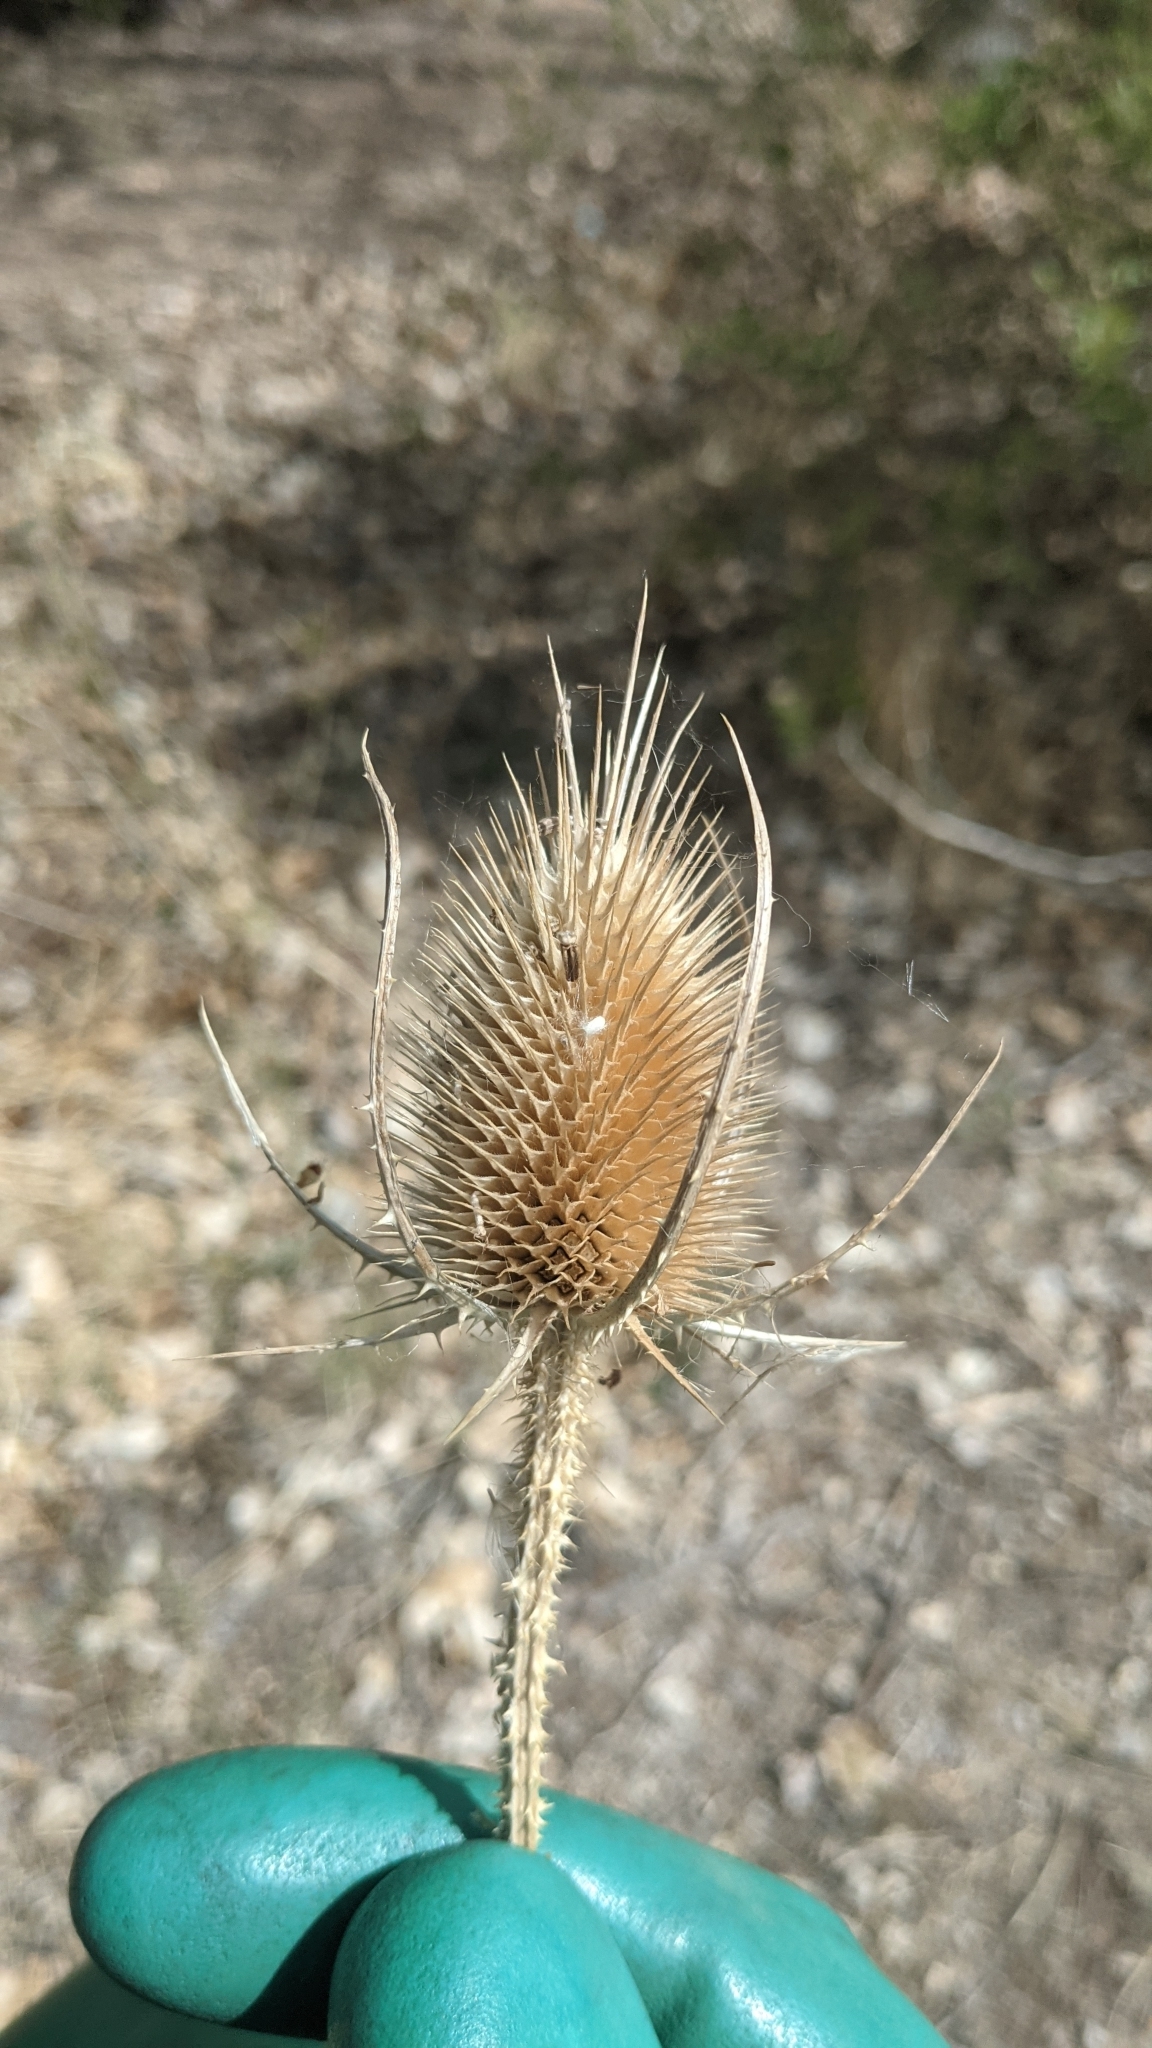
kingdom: Plantae
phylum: Tracheophyta
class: Magnoliopsida
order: Dipsacales
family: Caprifoliaceae
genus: Dipsacus
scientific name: Dipsacus fullonum
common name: Teasel
